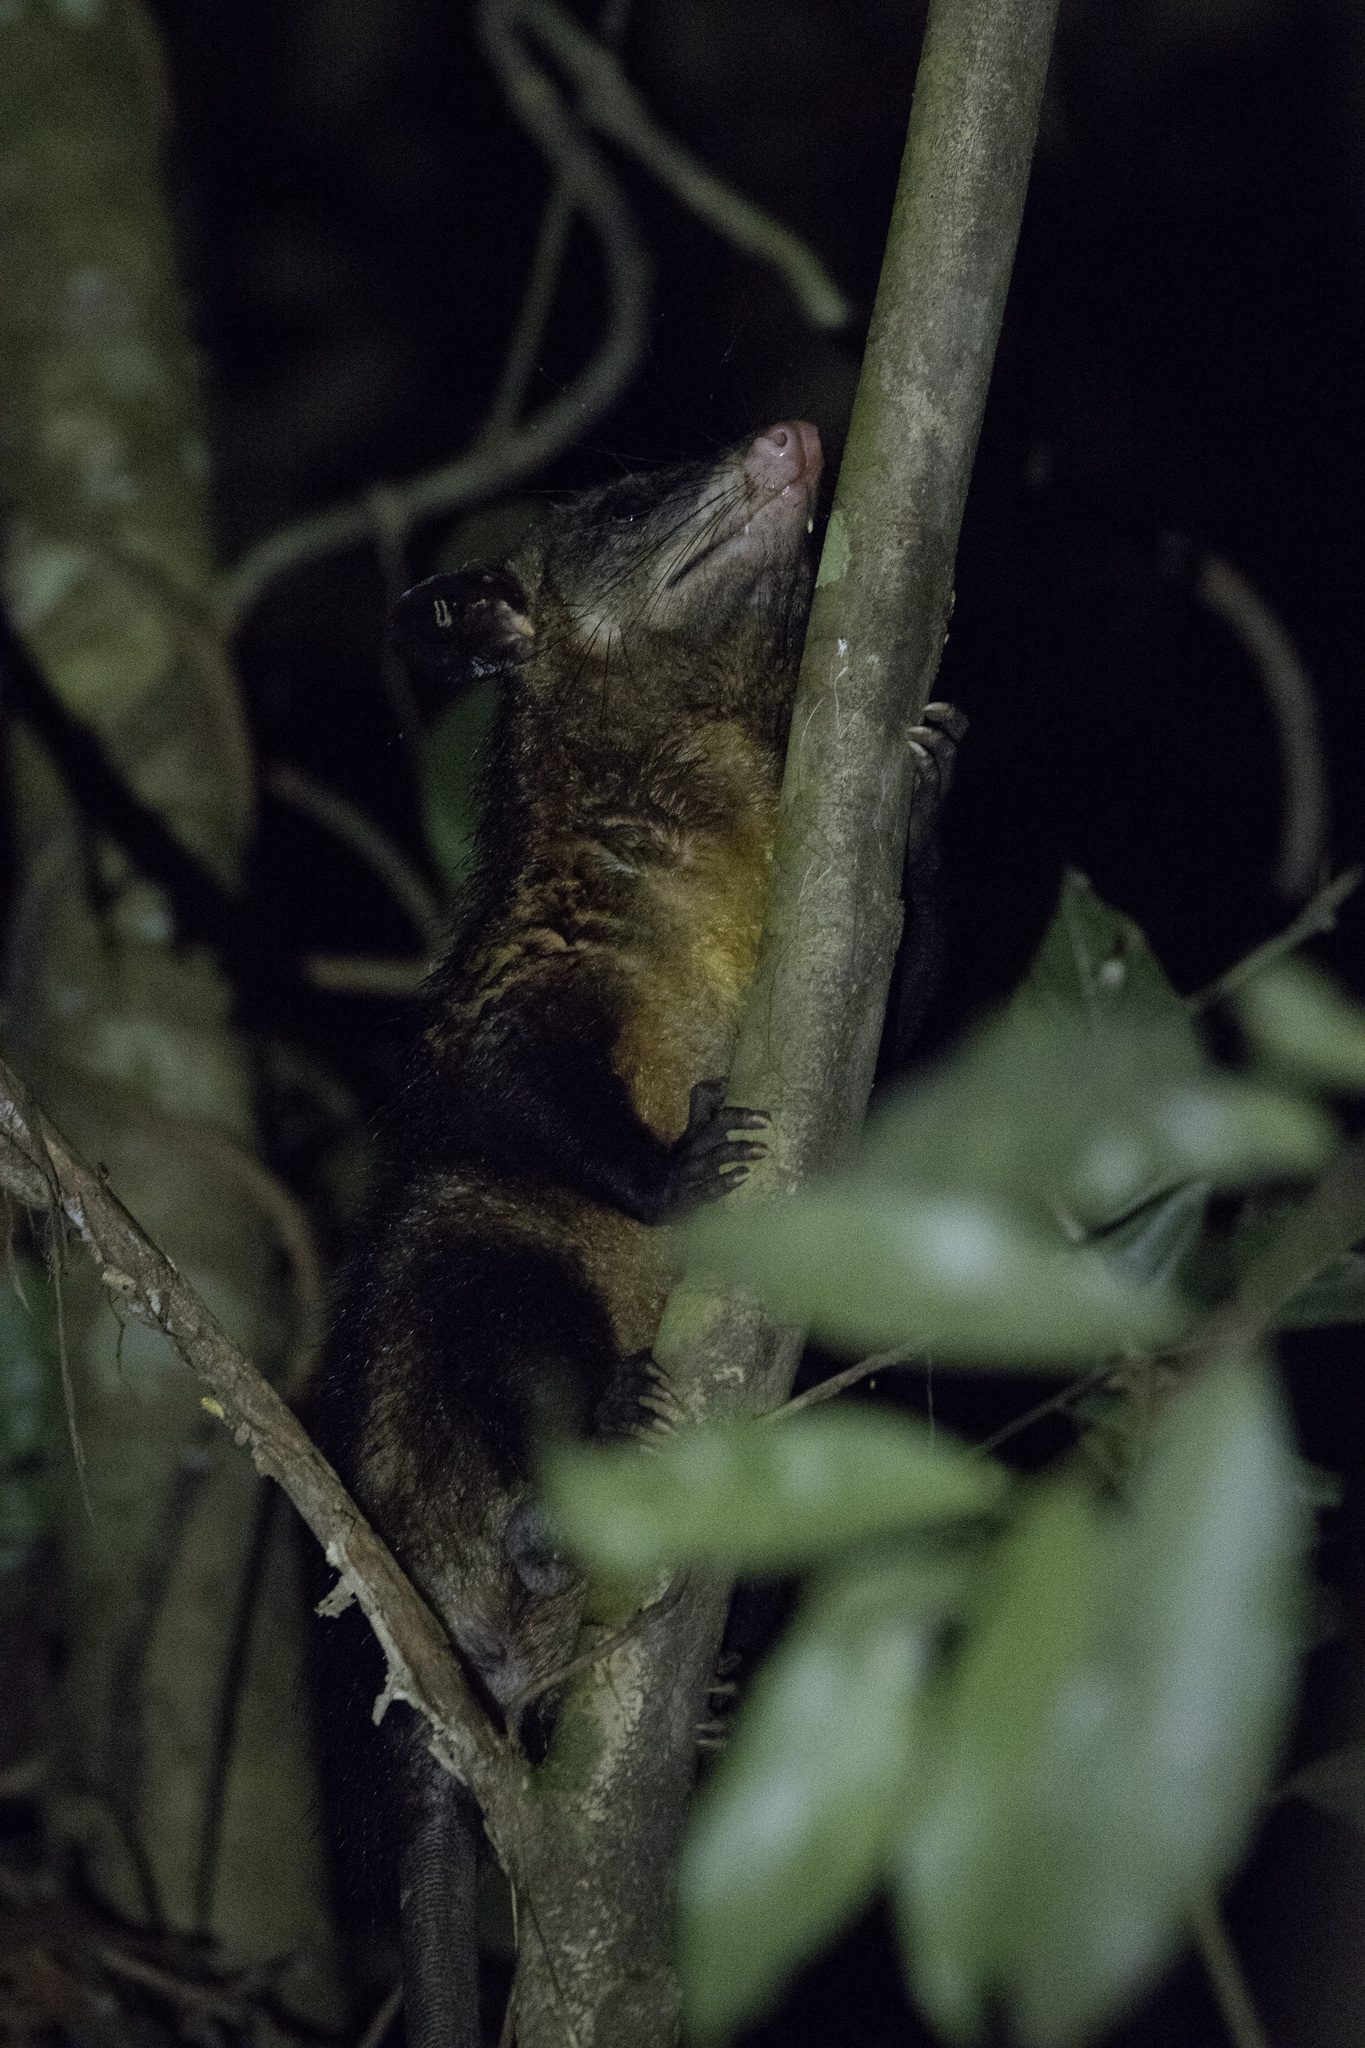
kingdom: Animalia
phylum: Chordata
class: Mammalia
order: Didelphimorphia
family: Didelphidae
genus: Didelphis
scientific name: Didelphis marsupialis
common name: Common opossum
